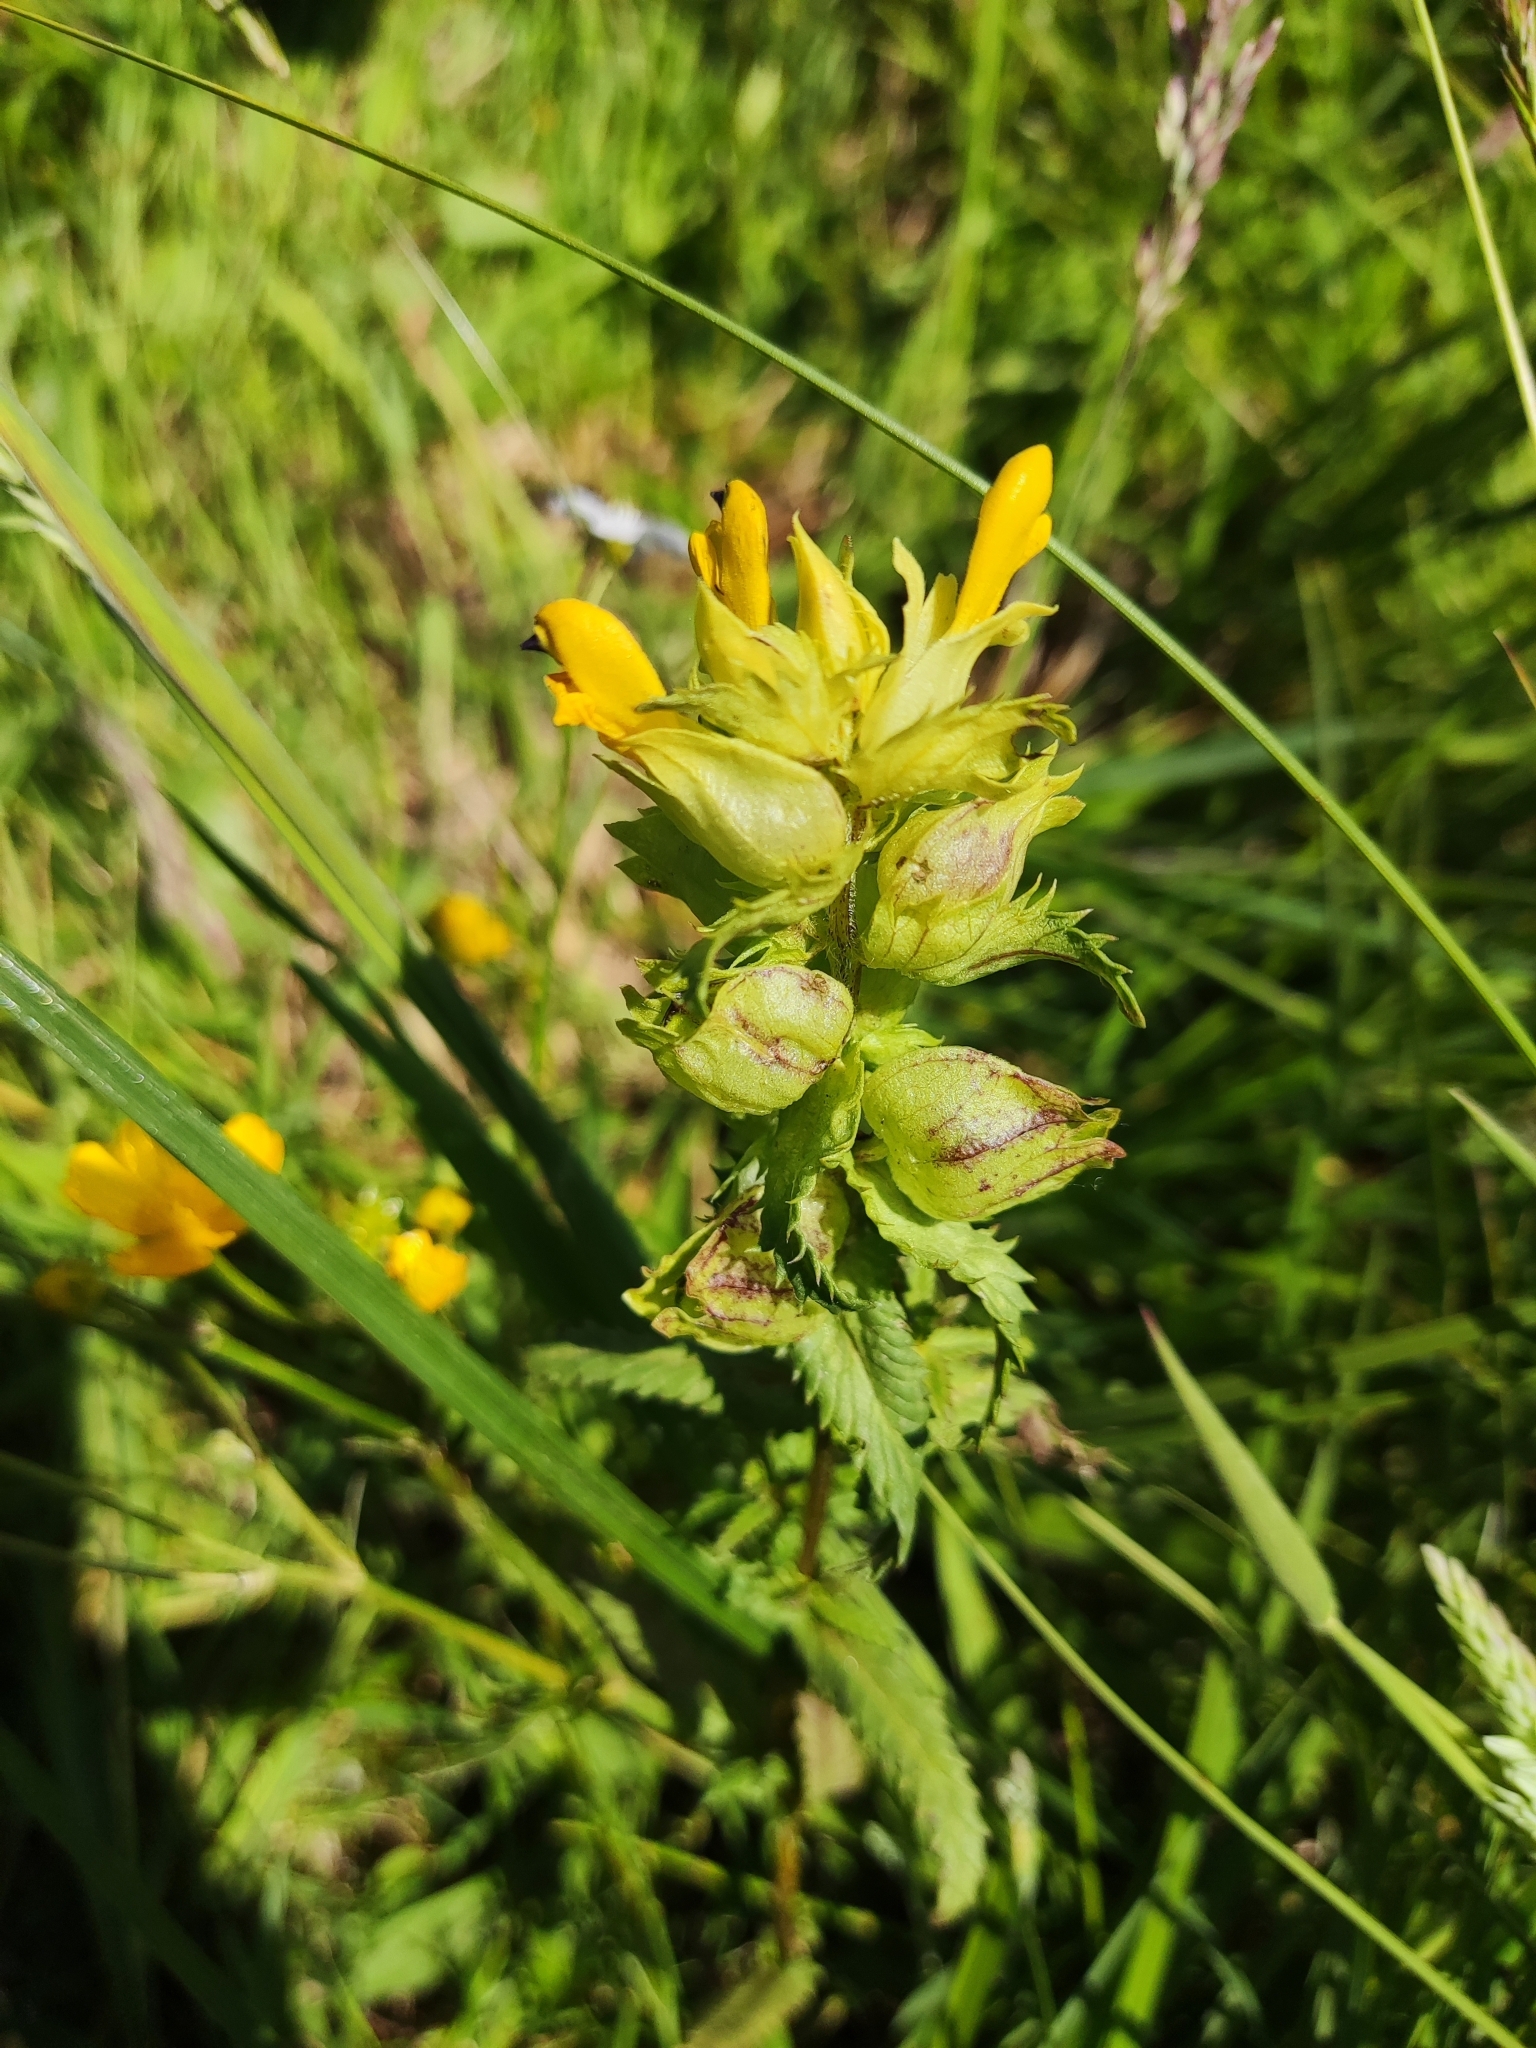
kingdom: Plantae
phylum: Tracheophyta
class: Magnoliopsida
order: Lamiales
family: Orobanchaceae
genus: Rhinanthus
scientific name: Rhinanthus serotinus
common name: Late-flowering yellow rattle
